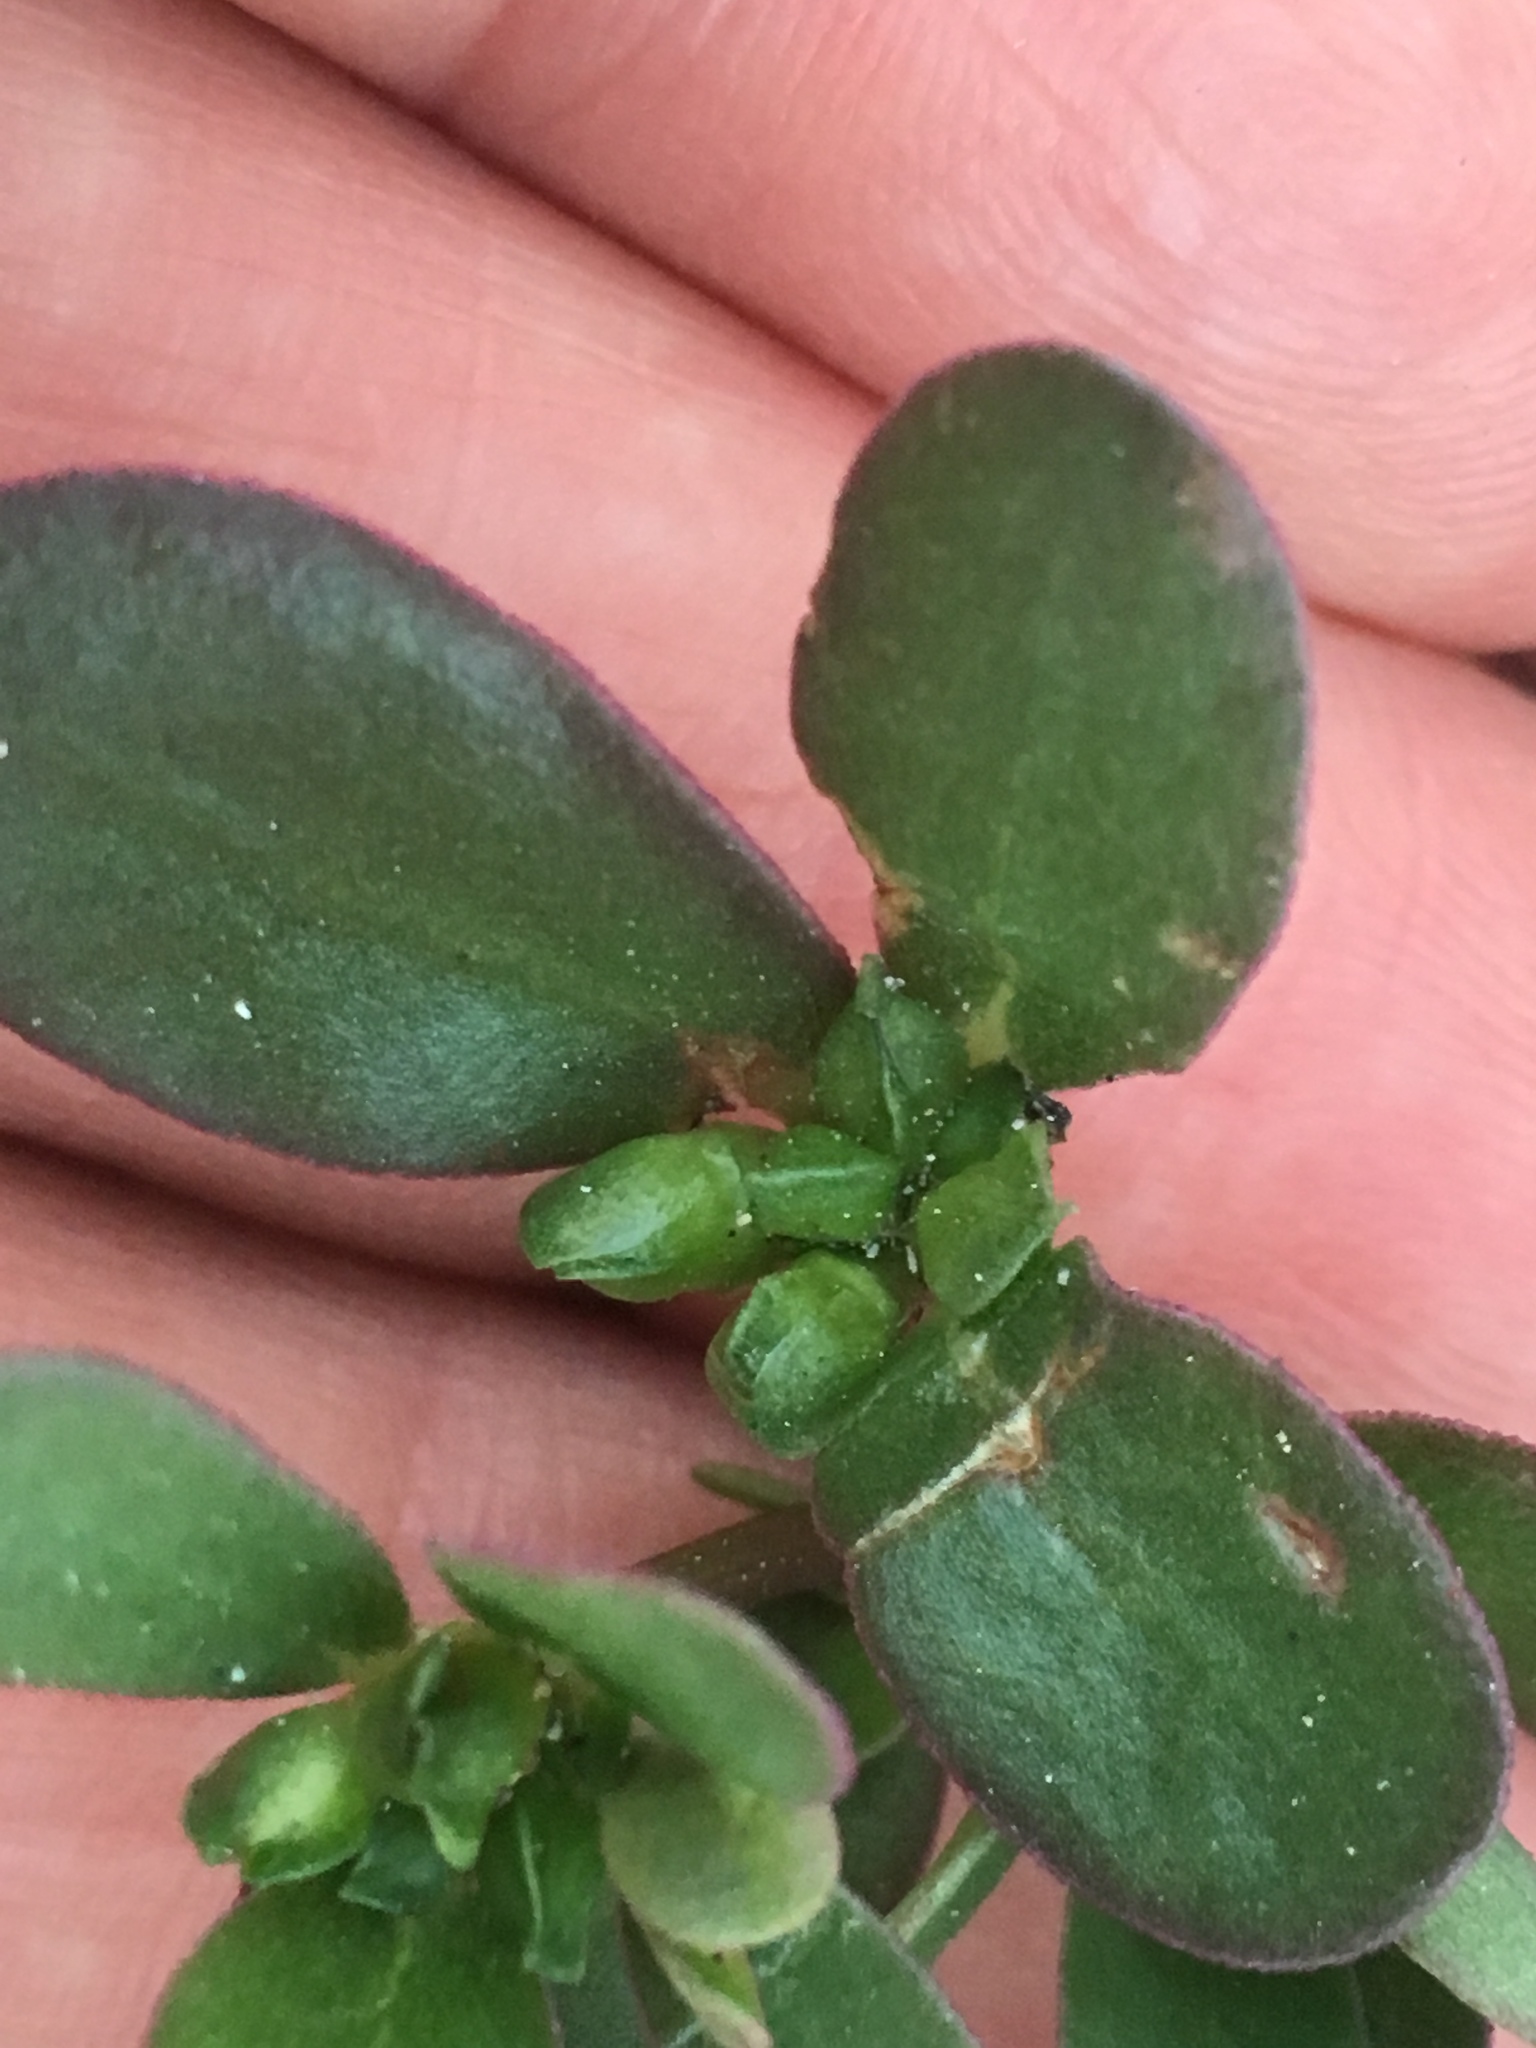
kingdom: Plantae
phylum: Tracheophyta
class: Magnoliopsida
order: Caryophyllales
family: Portulacaceae
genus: Portulaca
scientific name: Portulaca oleracea
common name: Common purslane
